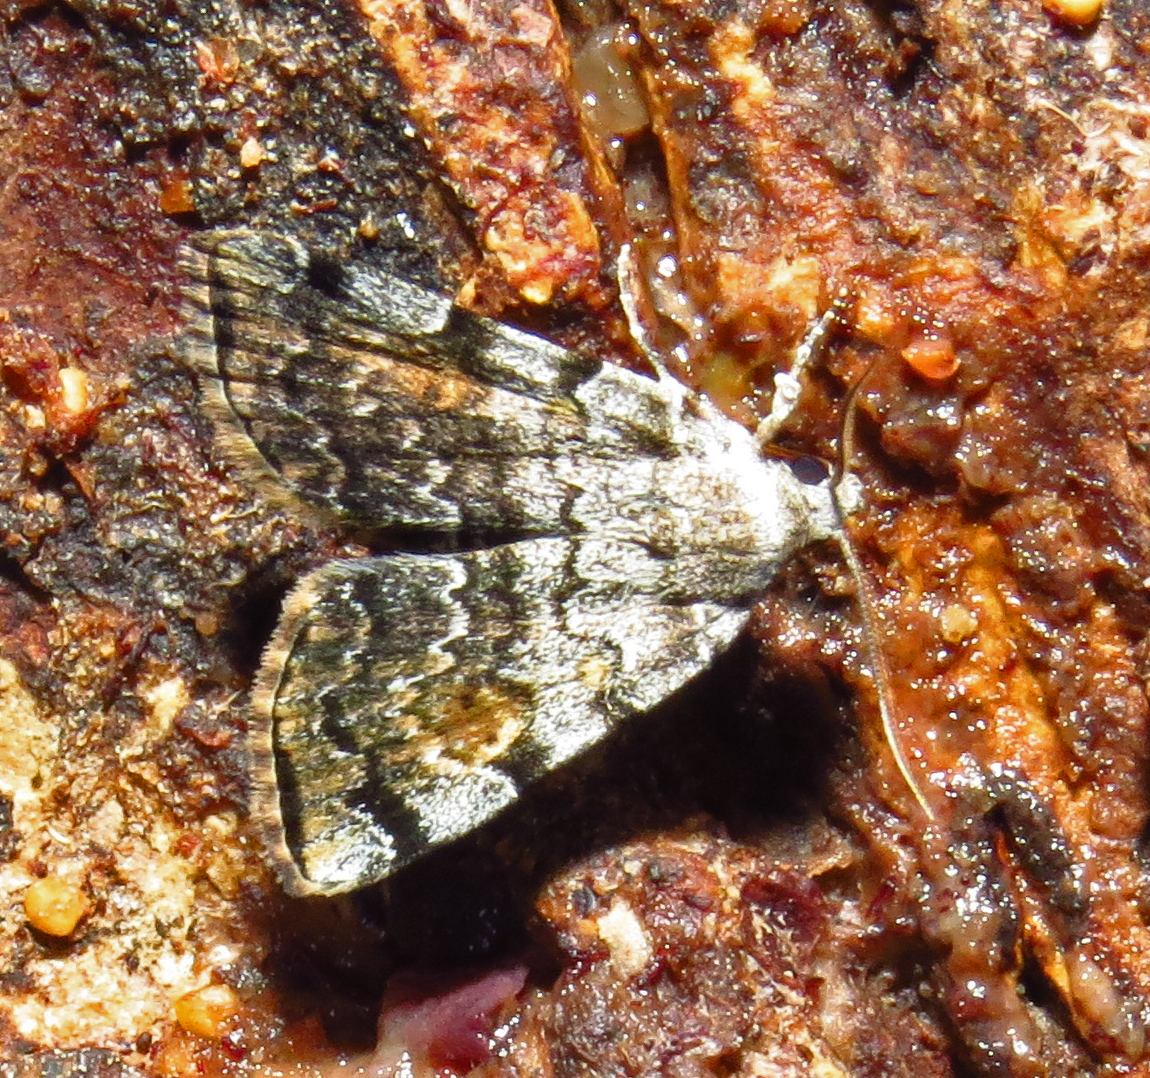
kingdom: Animalia
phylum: Arthropoda
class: Insecta
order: Lepidoptera
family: Erebidae
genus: Idia
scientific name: Idia americalis
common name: American idia moth
